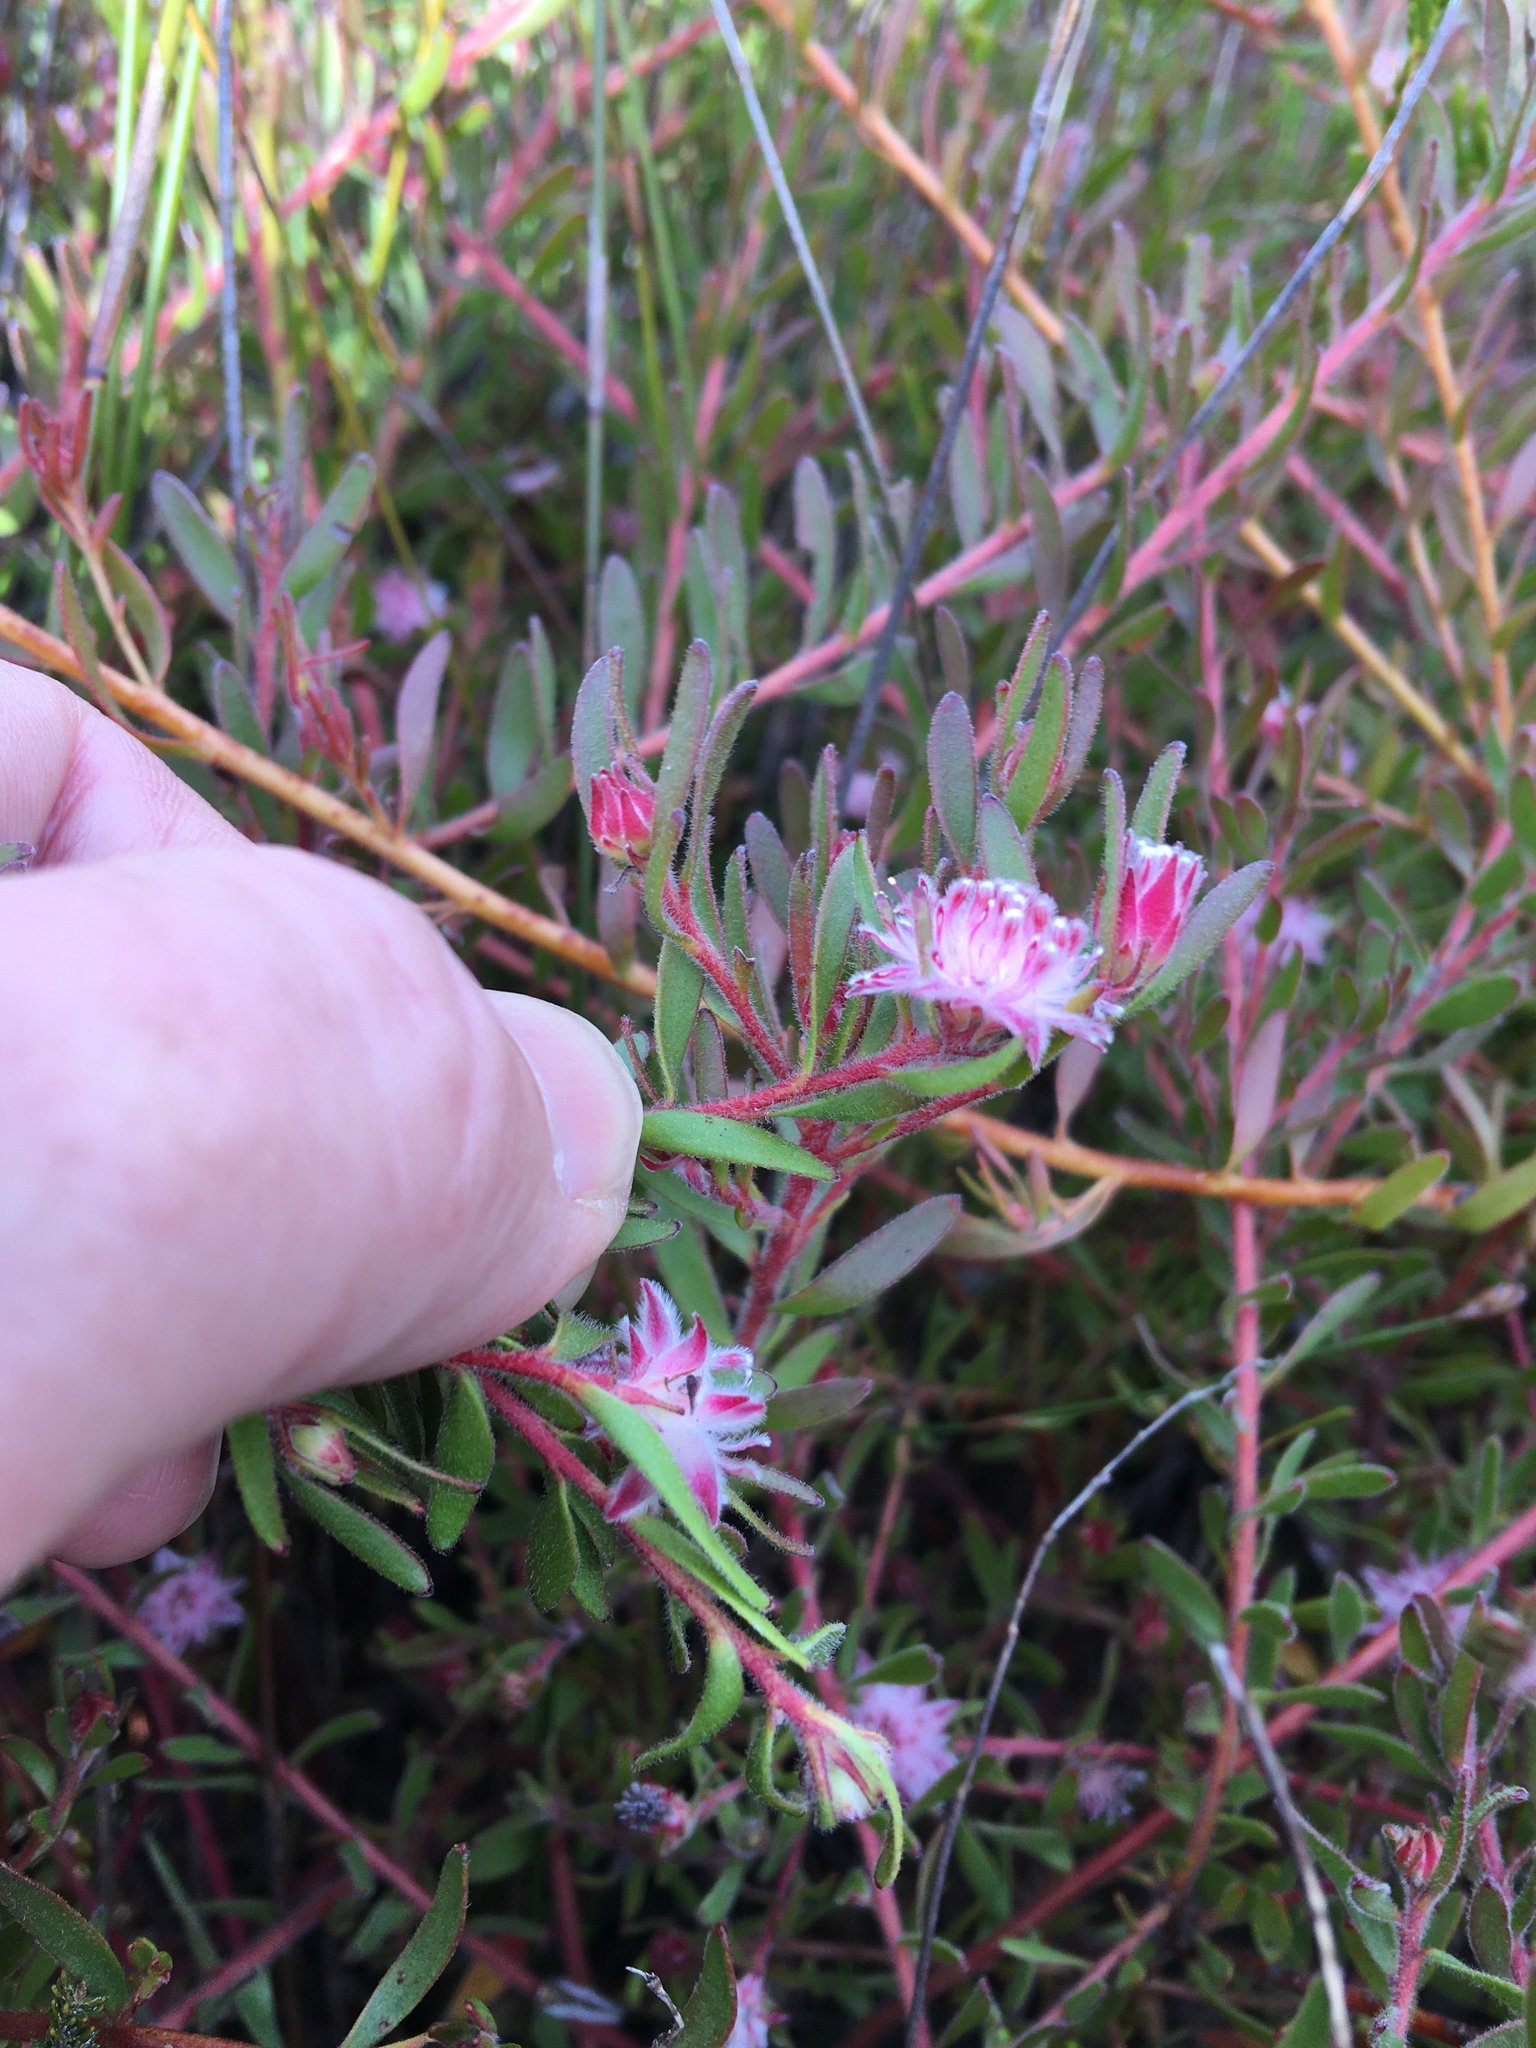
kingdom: Plantae
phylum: Tracheophyta
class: Magnoliopsida
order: Proteales
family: Proteaceae
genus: Diastella
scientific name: Diastella divaricata
